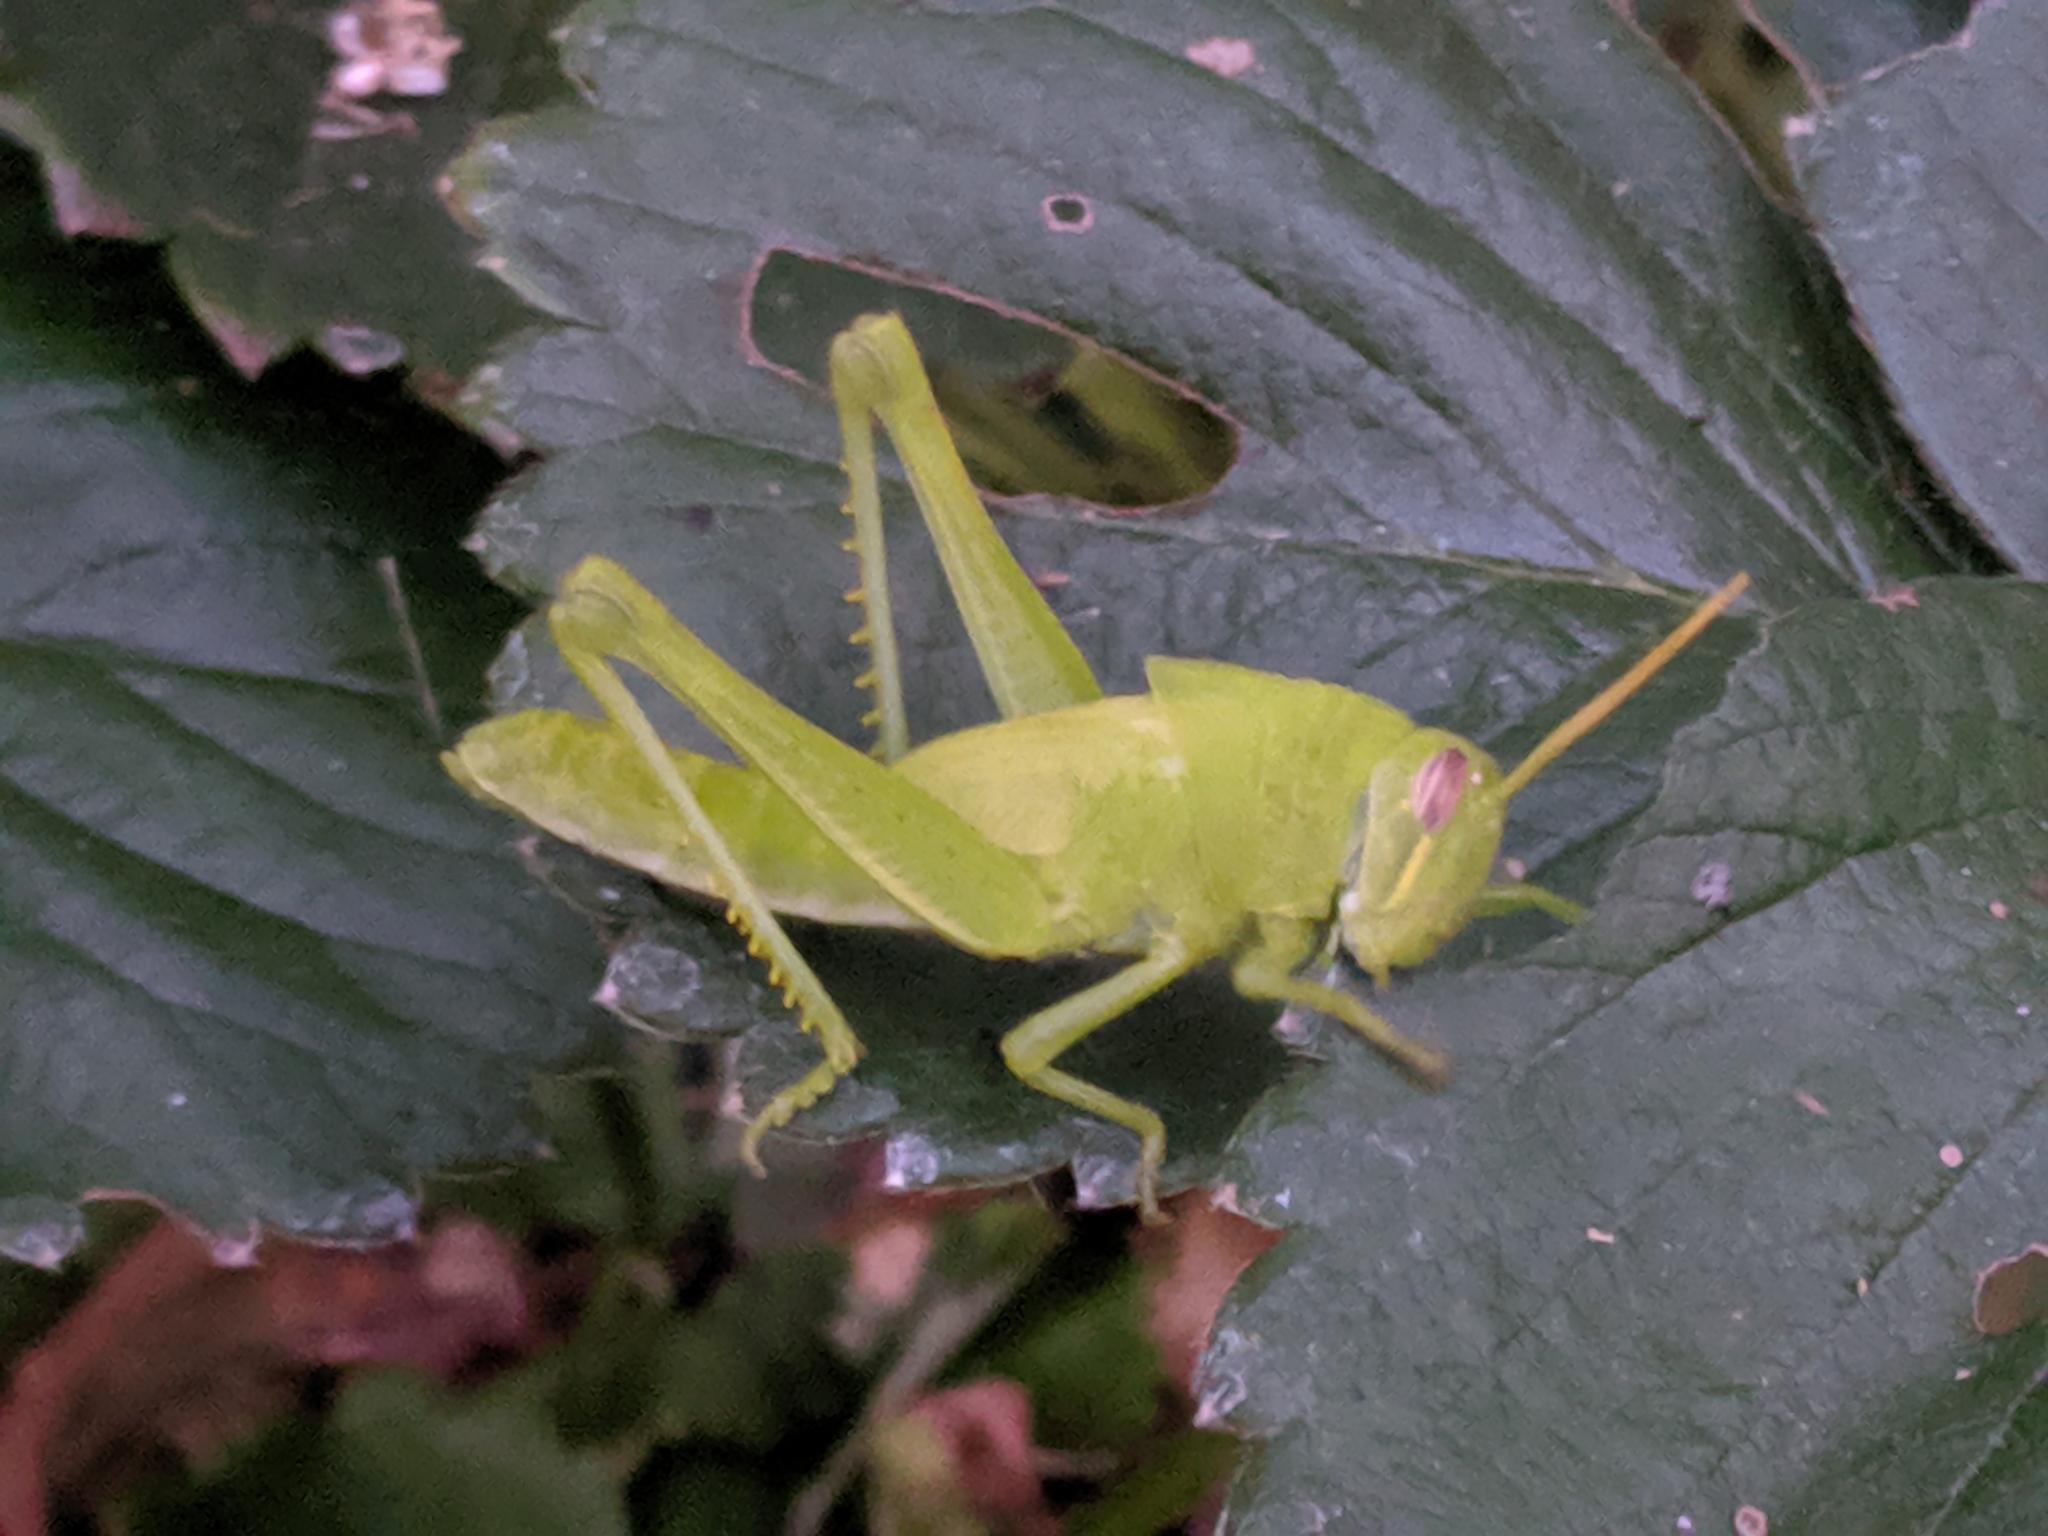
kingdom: Animalia
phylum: Arthropoda
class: Insecta
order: Orthoptera
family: Acrididae
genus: Schistocerca
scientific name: Schistocerca nitens
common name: Vagrant grasshopper
